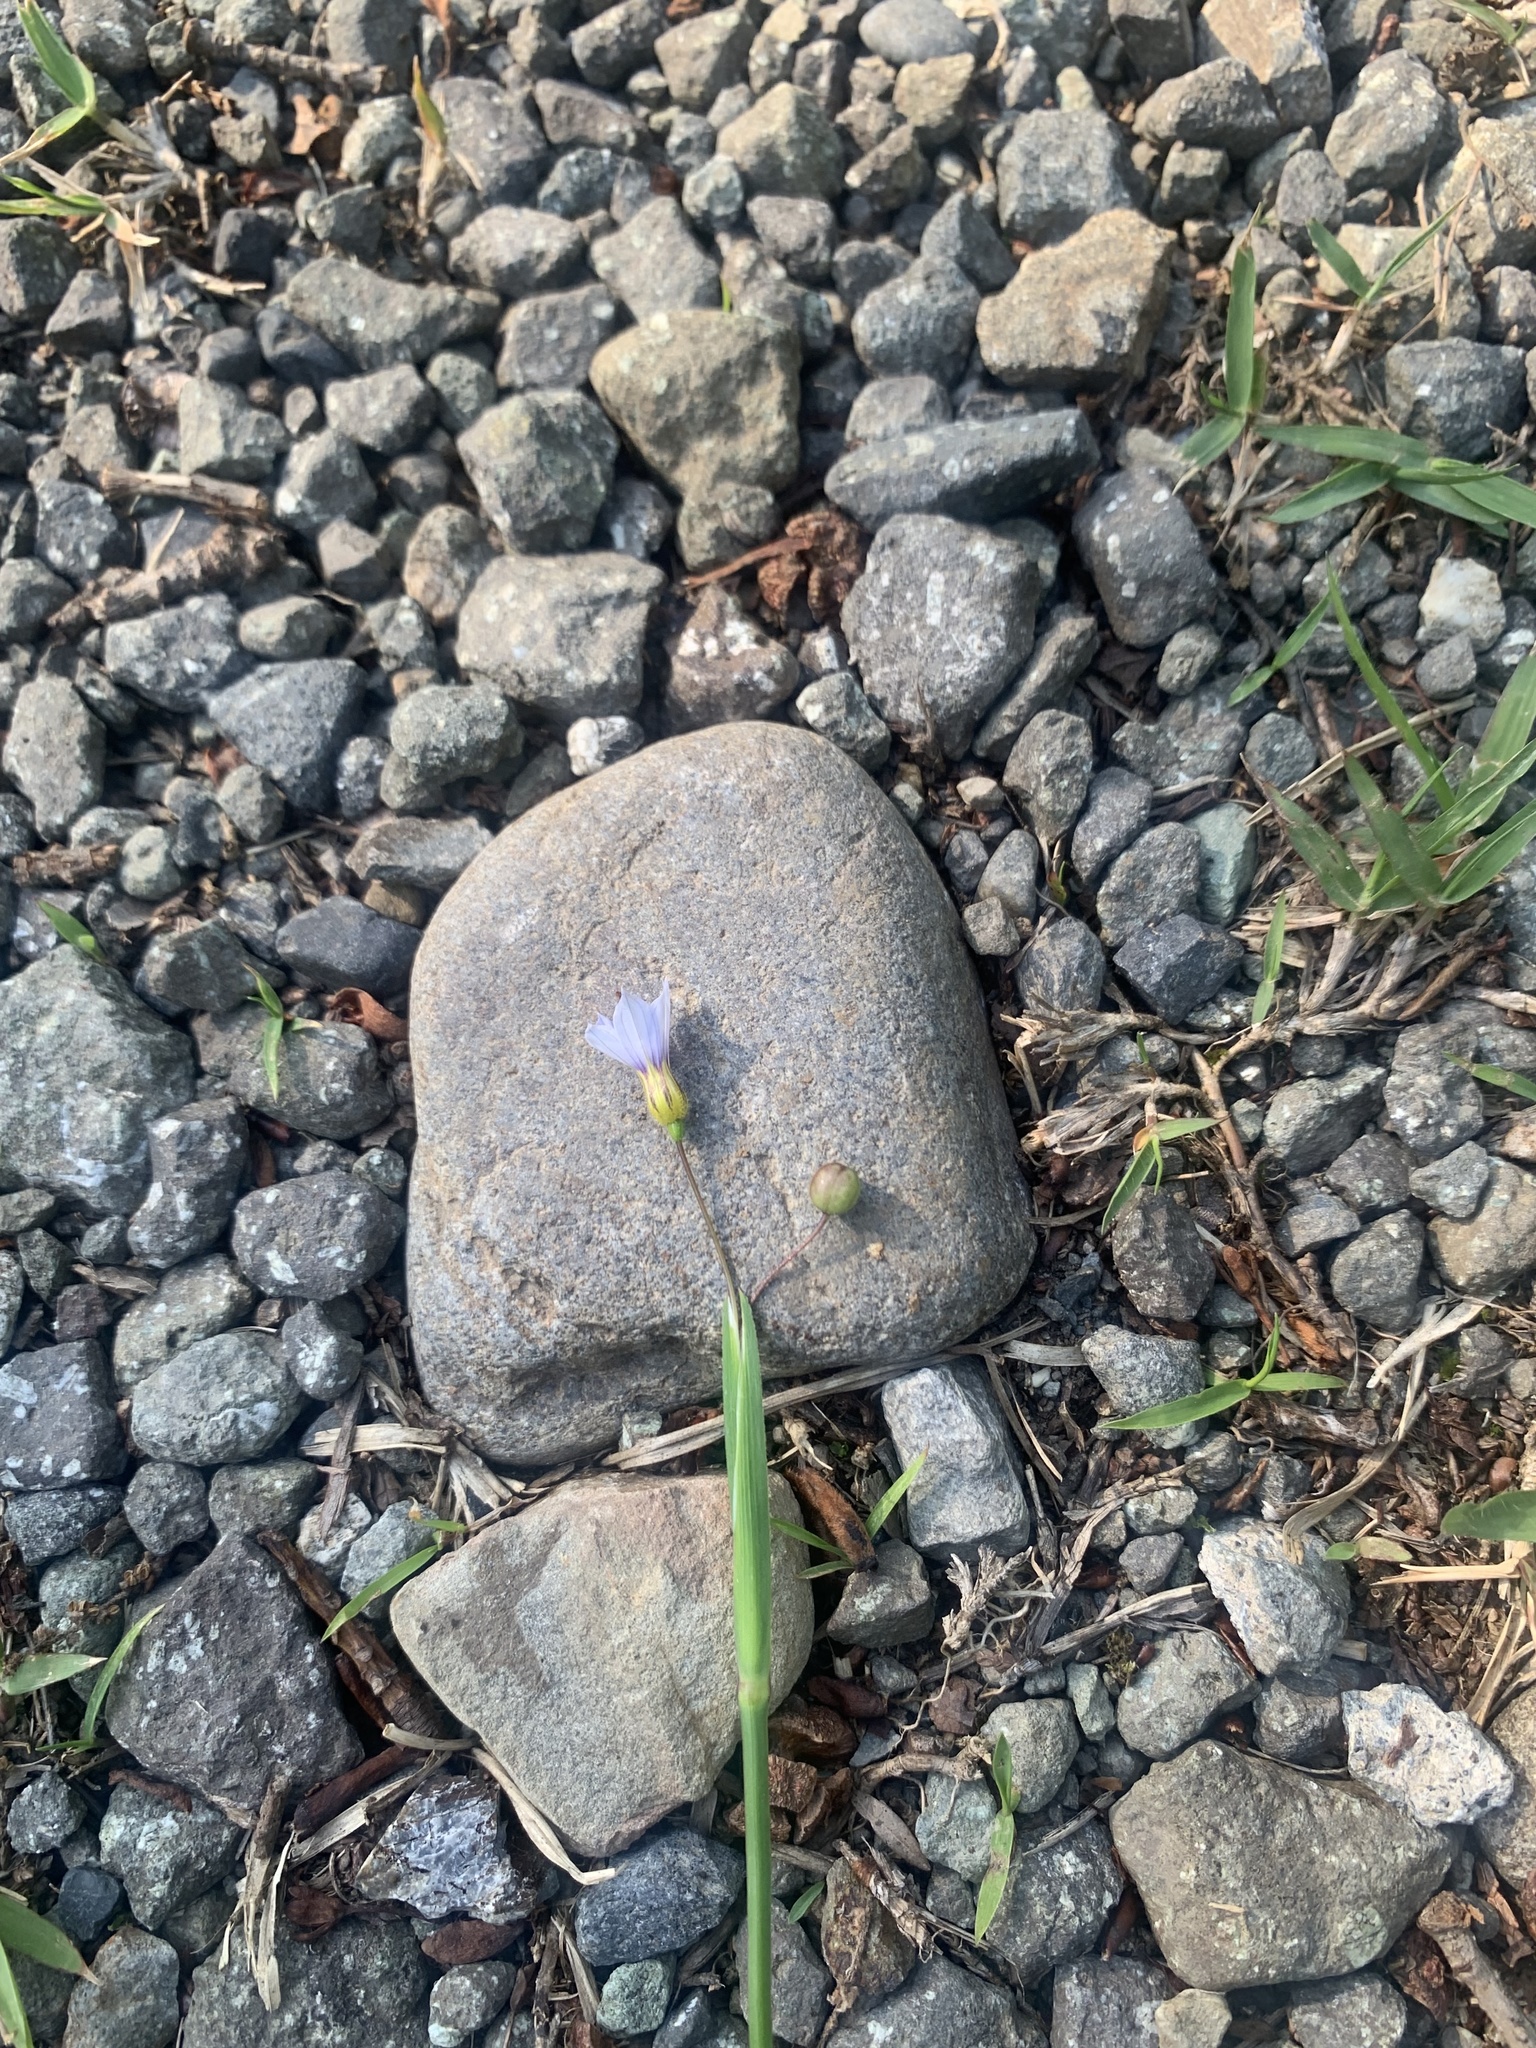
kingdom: Plantae
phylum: Tracheophyta
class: Liliopsida
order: Asparagales
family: Iridaceae
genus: Sisyrinchium
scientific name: Sisyrinchium micranthum
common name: Bermuda pigroot
